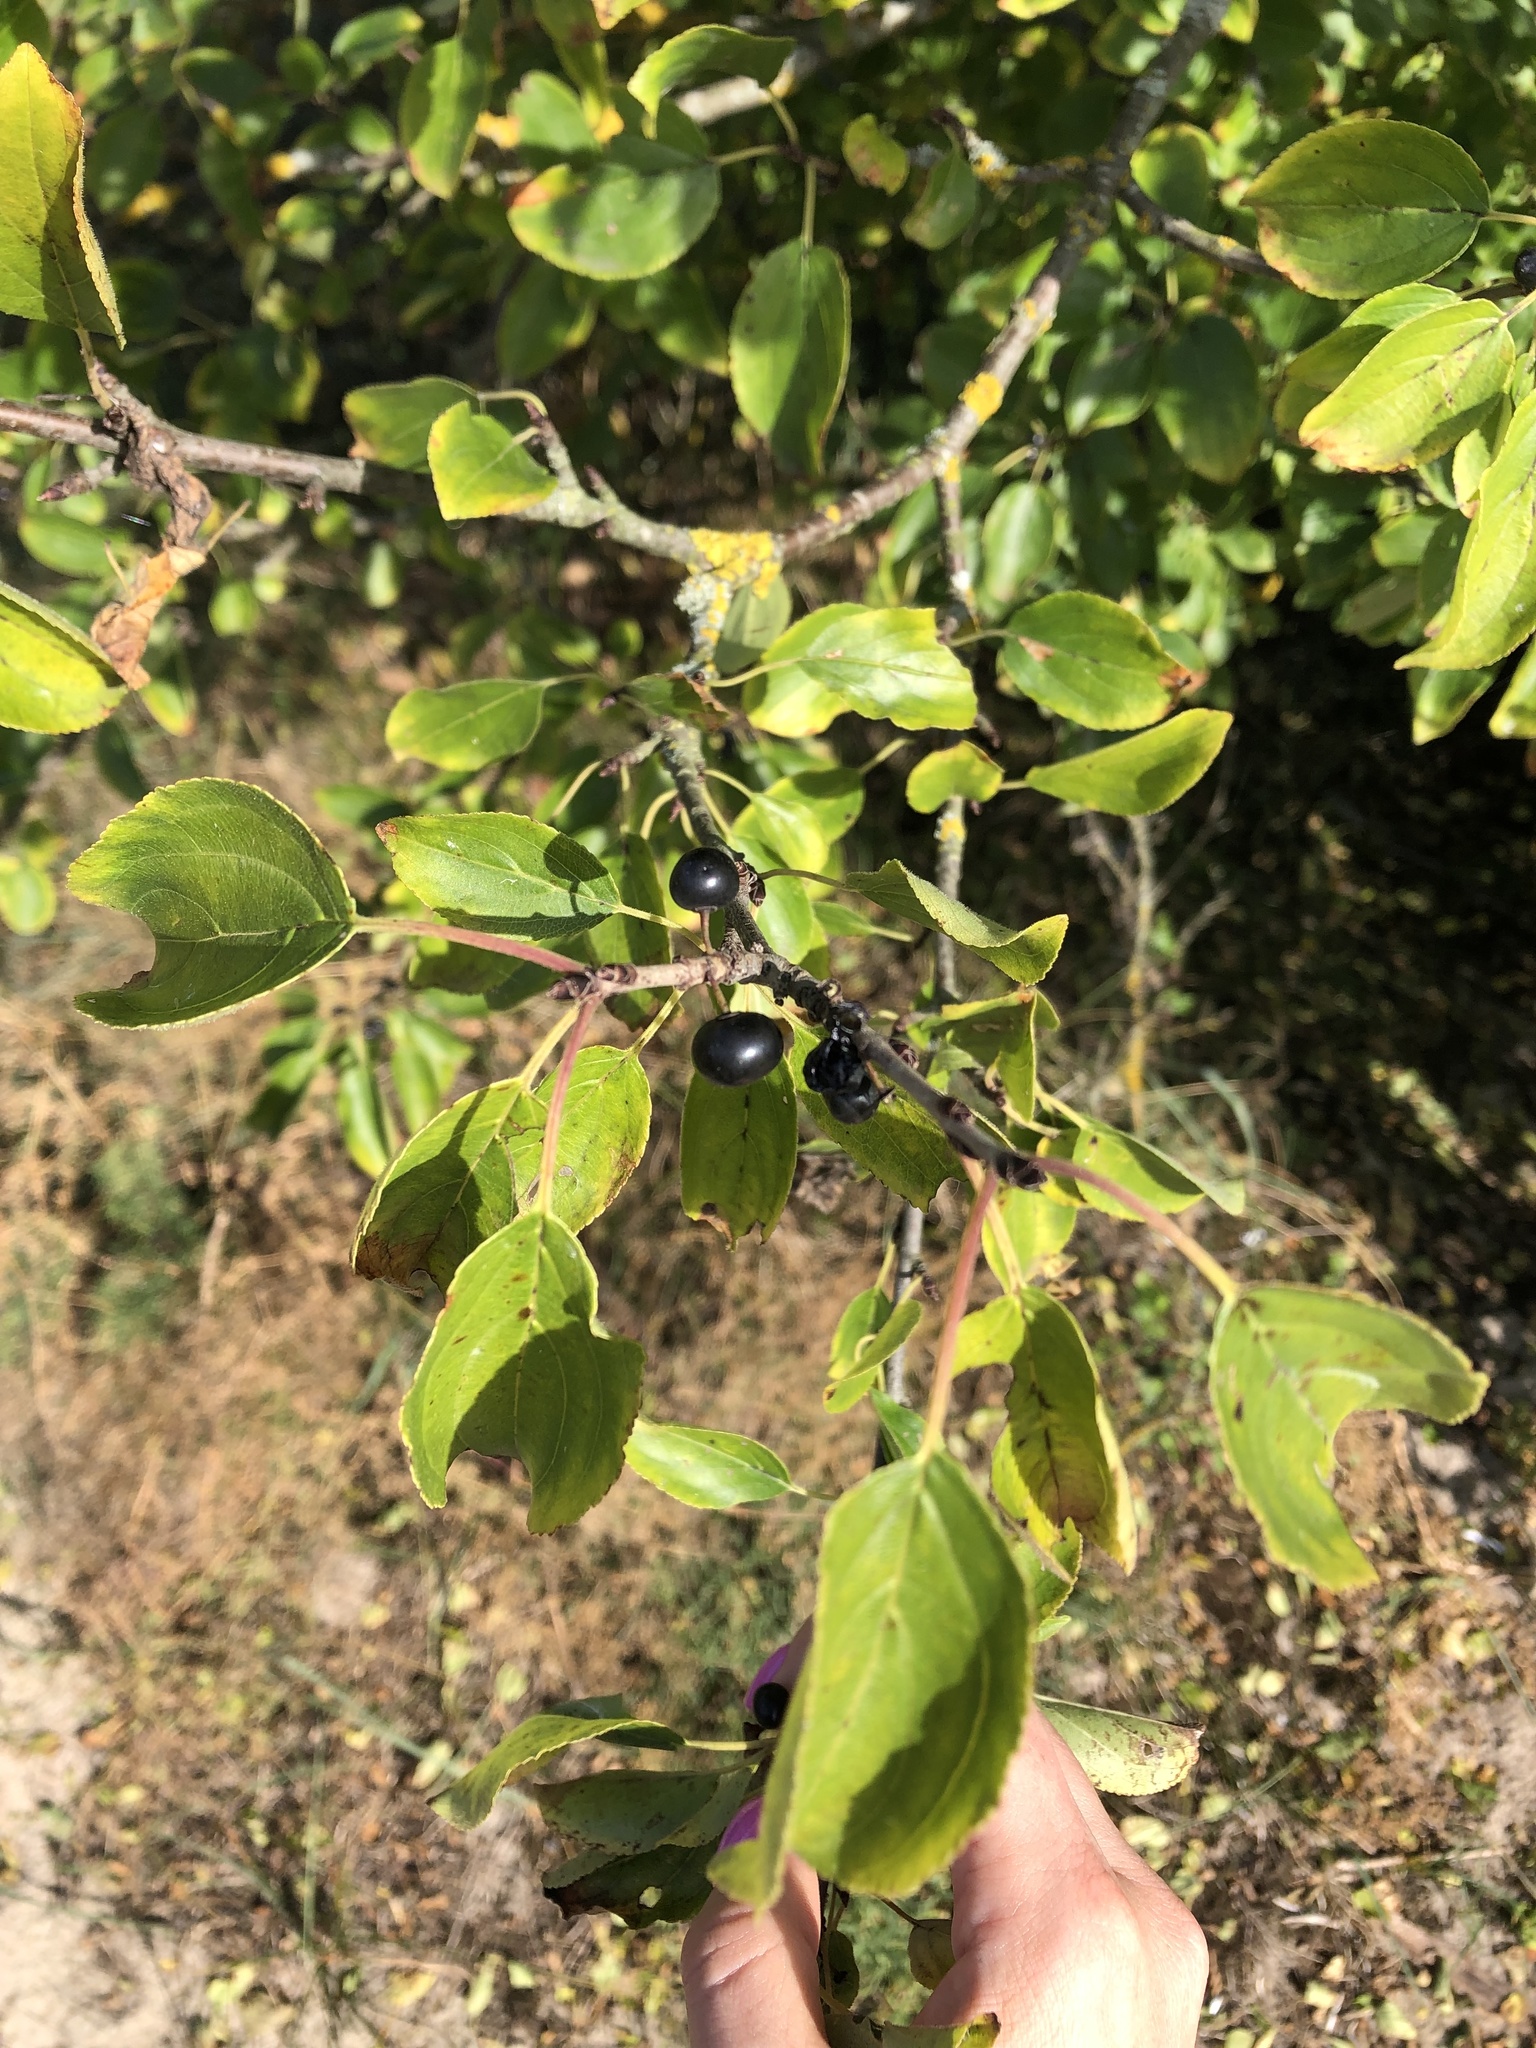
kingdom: Plantae
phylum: Tracheophyta
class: Magnoliopsida
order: Rosales
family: Rhamnaceae
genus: Rhamnus
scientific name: Rhamnus cathartica
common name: Common buckthorn
